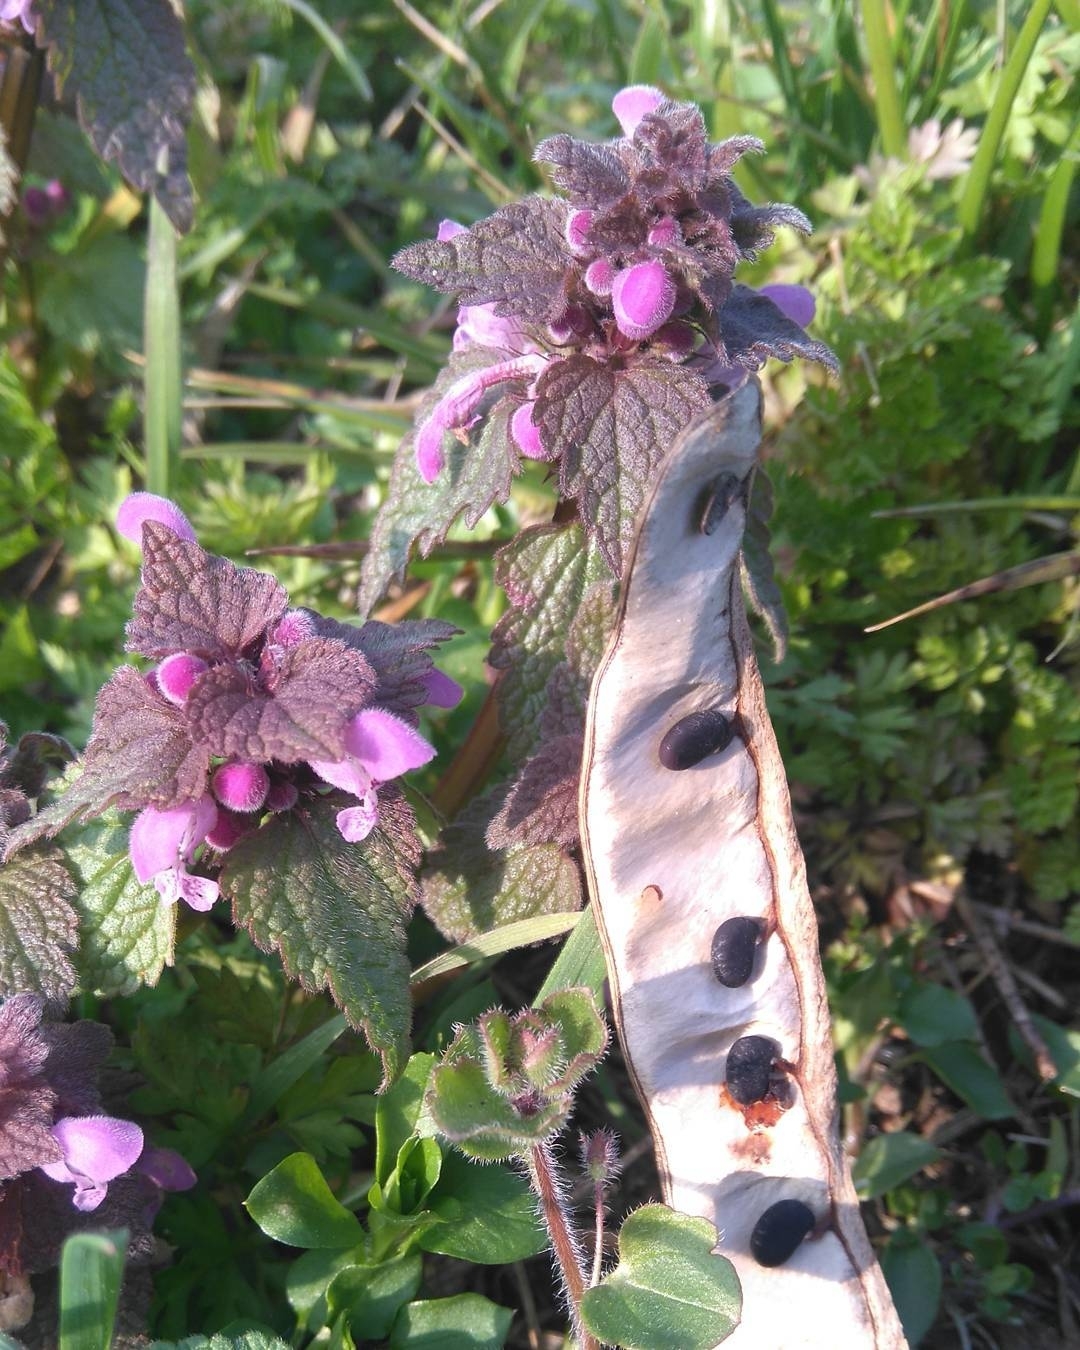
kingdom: Plantae
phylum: Tracheophyta
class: Magnoliopsida
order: Lamiales
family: Lamiaceae
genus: Lamium
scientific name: Lamium purpureum
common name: Red dead-nettle
